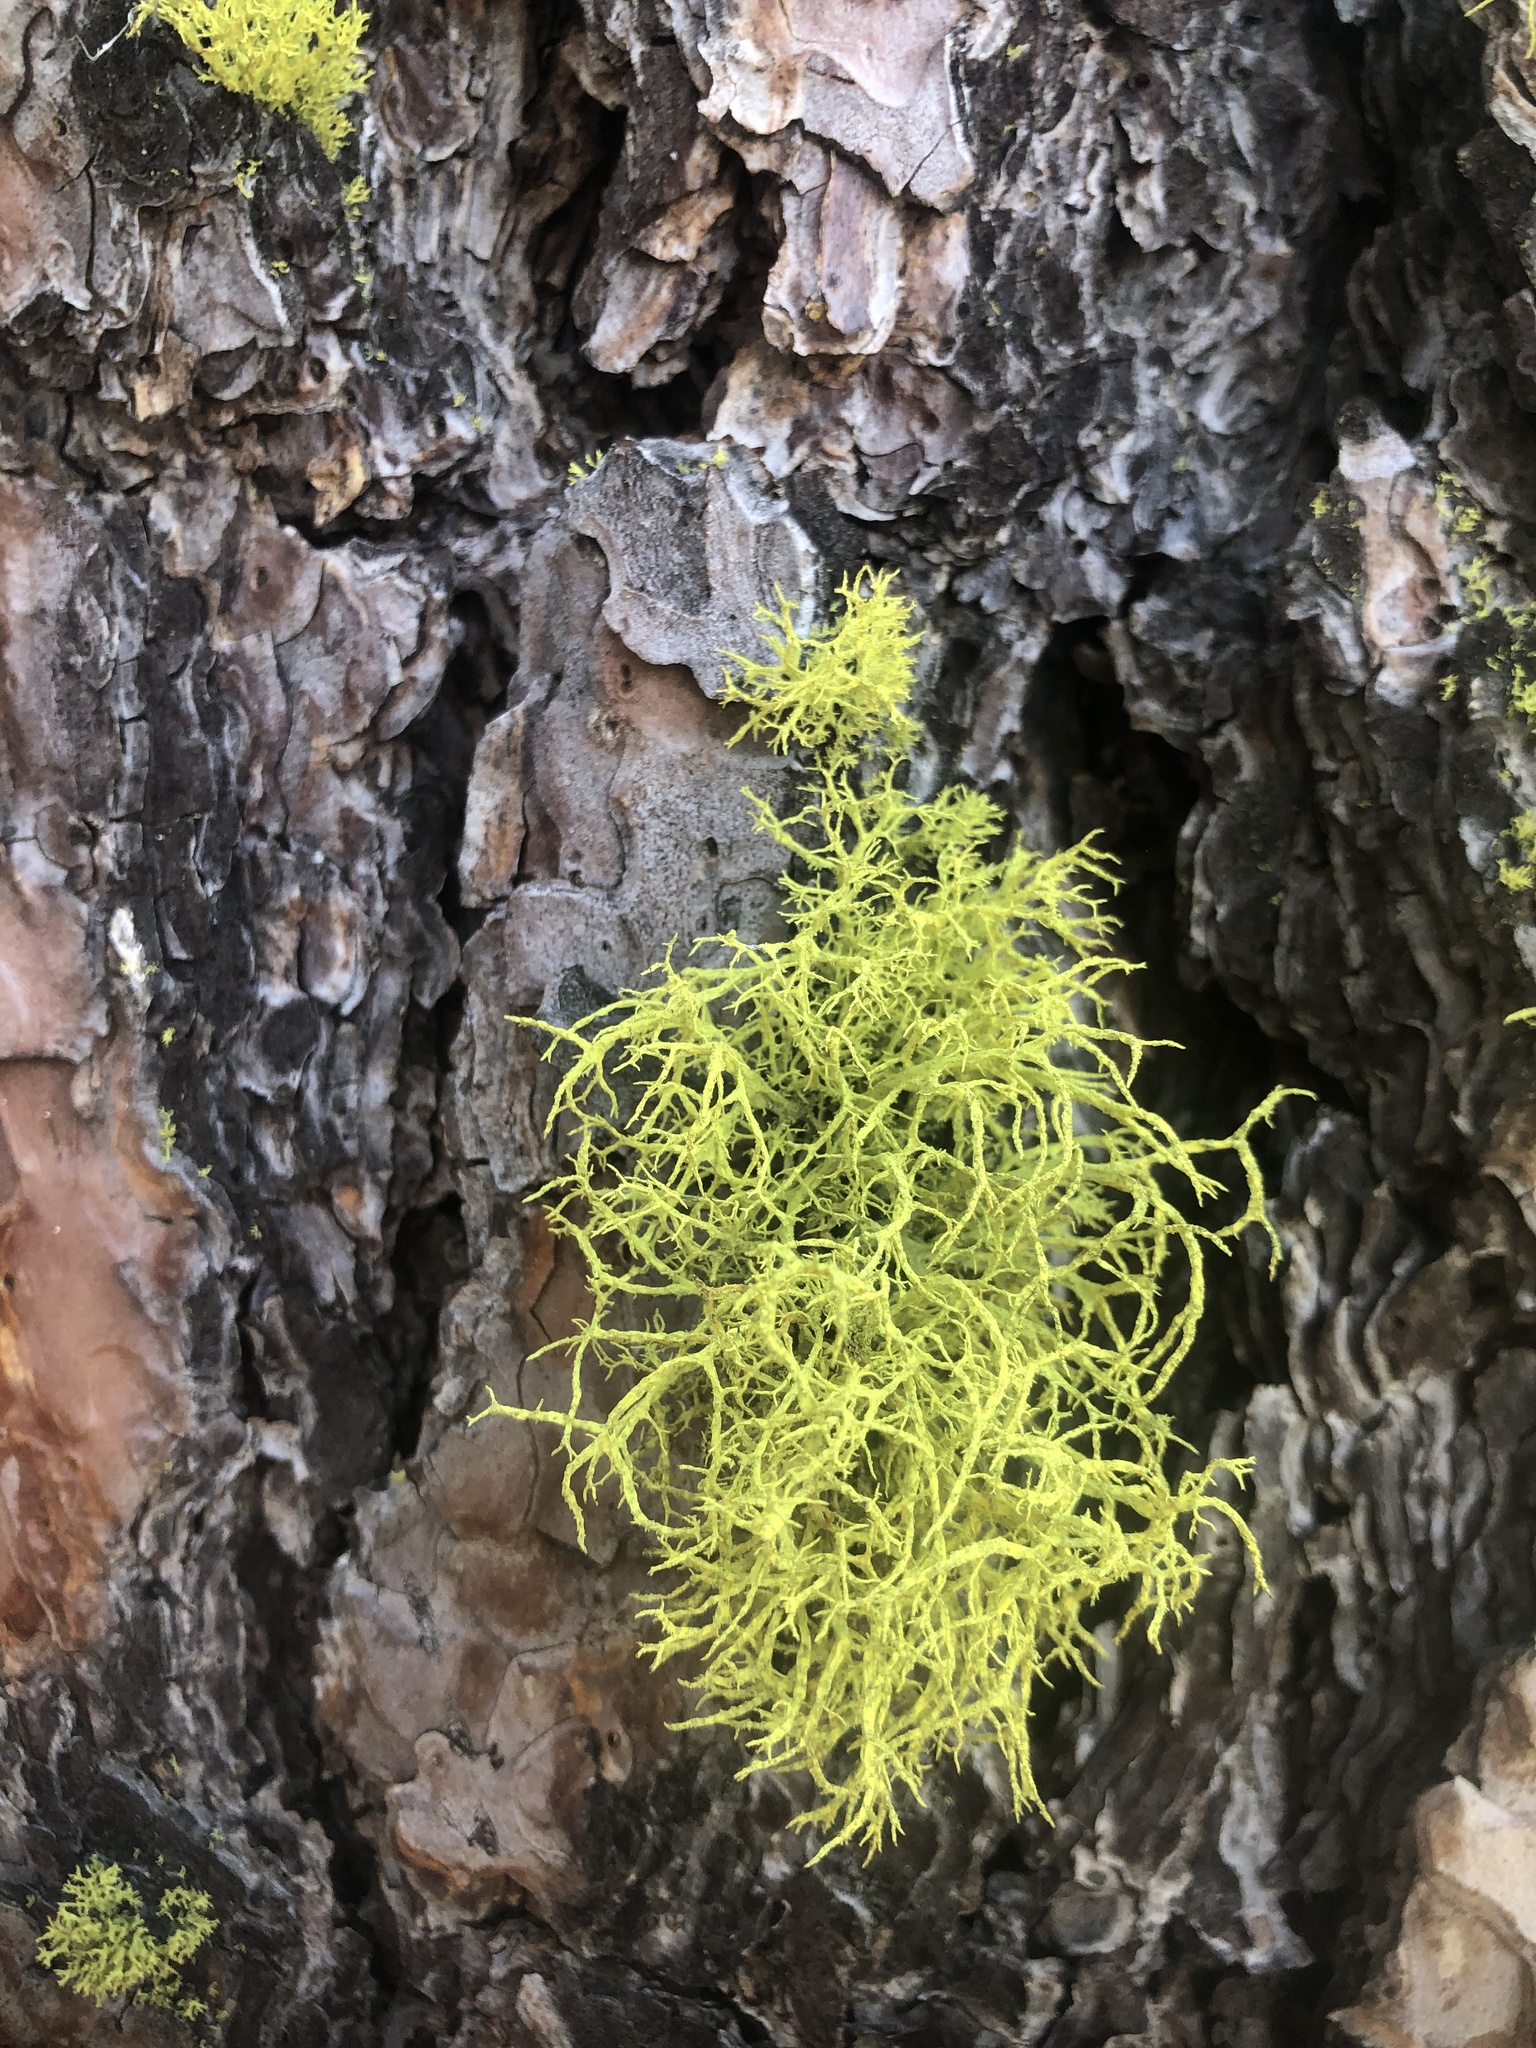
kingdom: Fungi
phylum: Ascomycota
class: Lecanoromycetes
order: Lecanorales
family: Parmeliaceae
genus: Letharia
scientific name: Letharia vulpina
